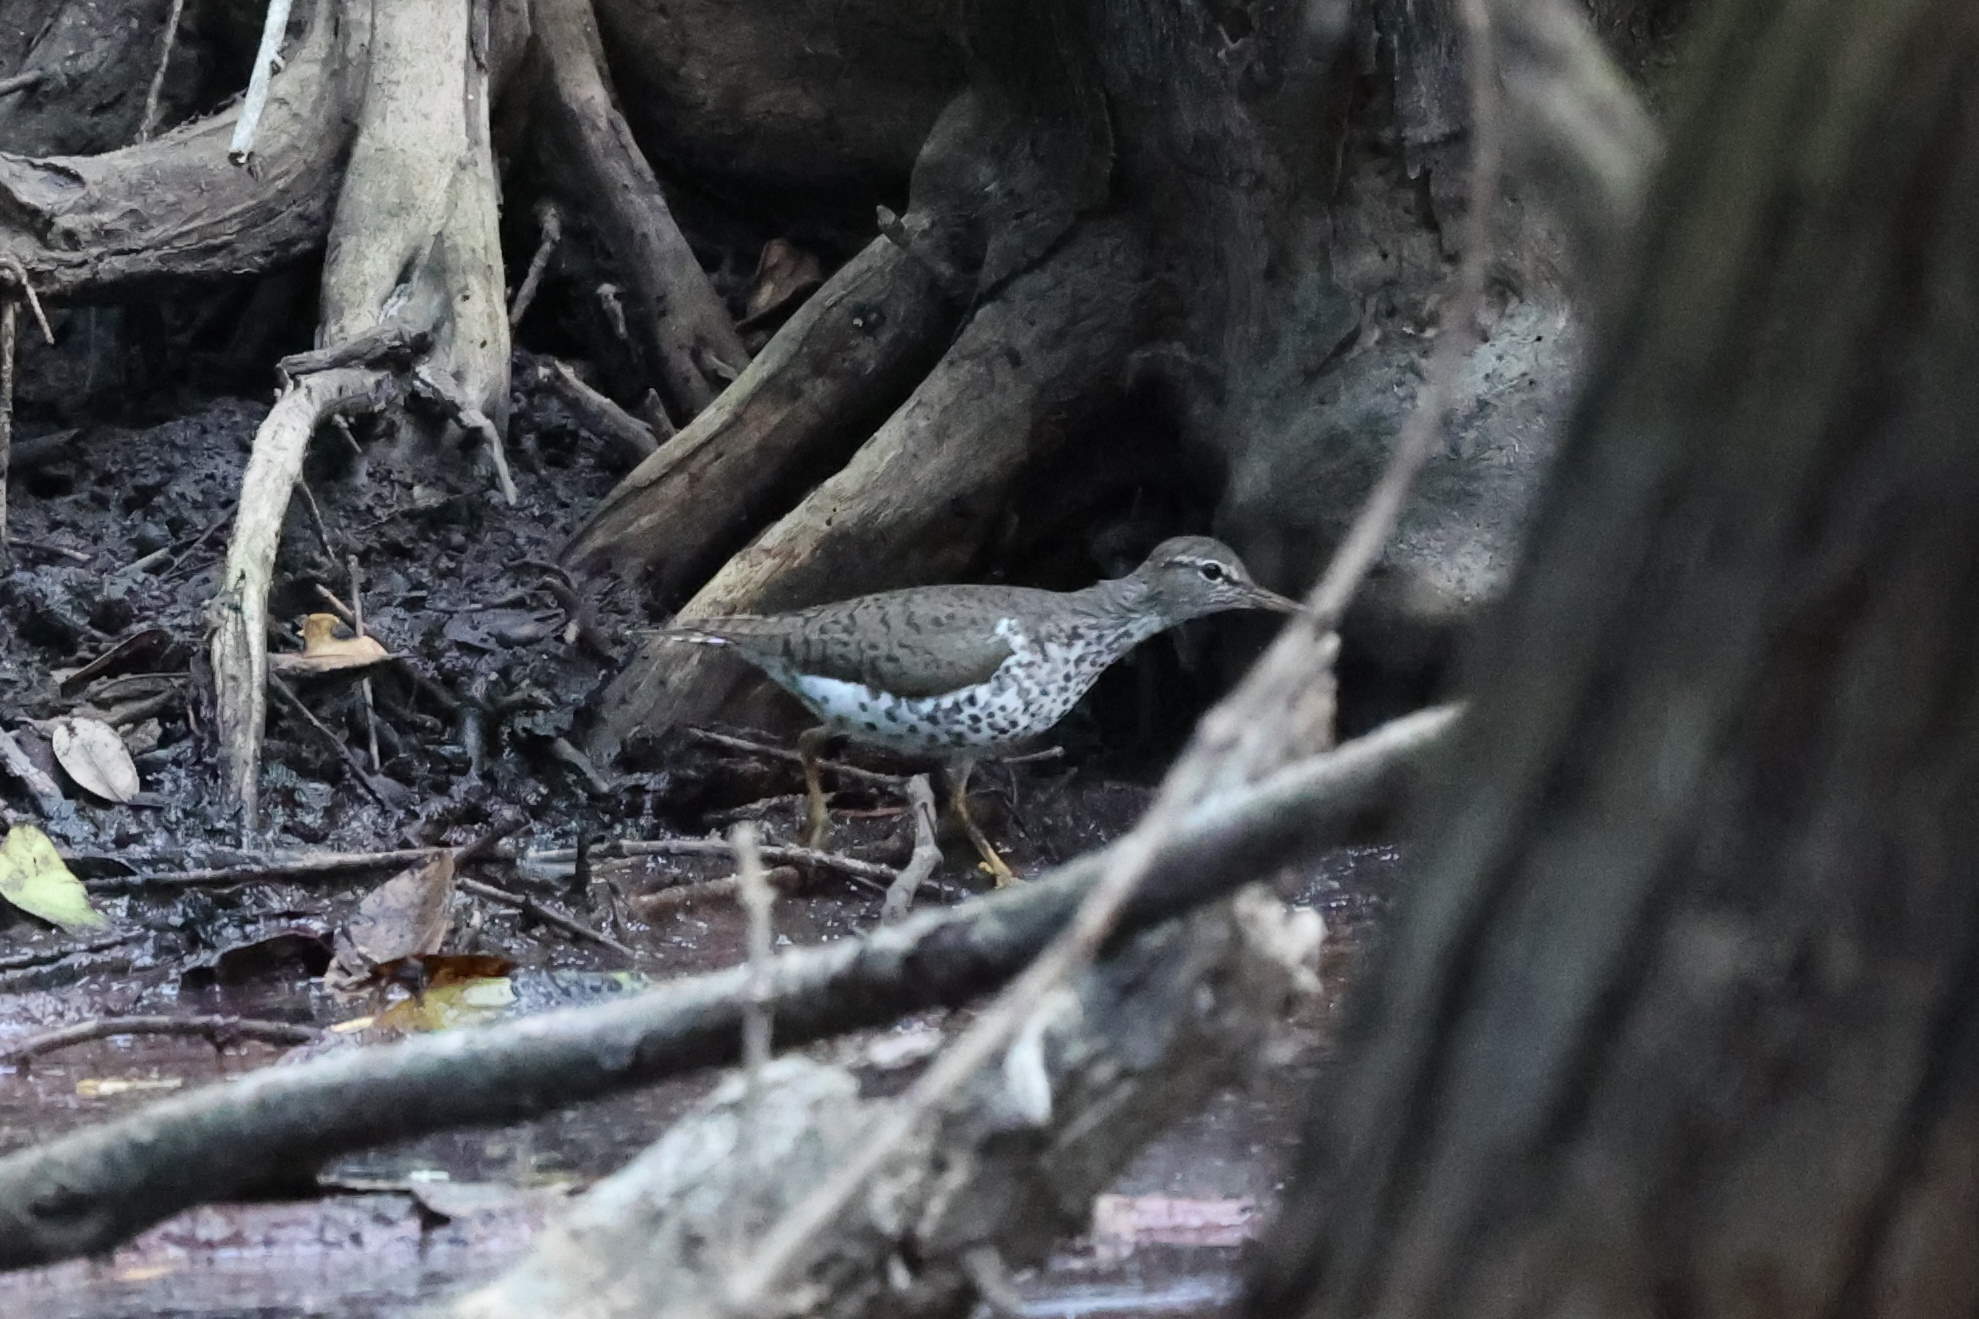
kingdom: Animalia
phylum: Chordata
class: Aves
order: Charadriiformes
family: Scolopacidae
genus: Actitis
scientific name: Actitis macularius
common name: Spotted sandpiper
